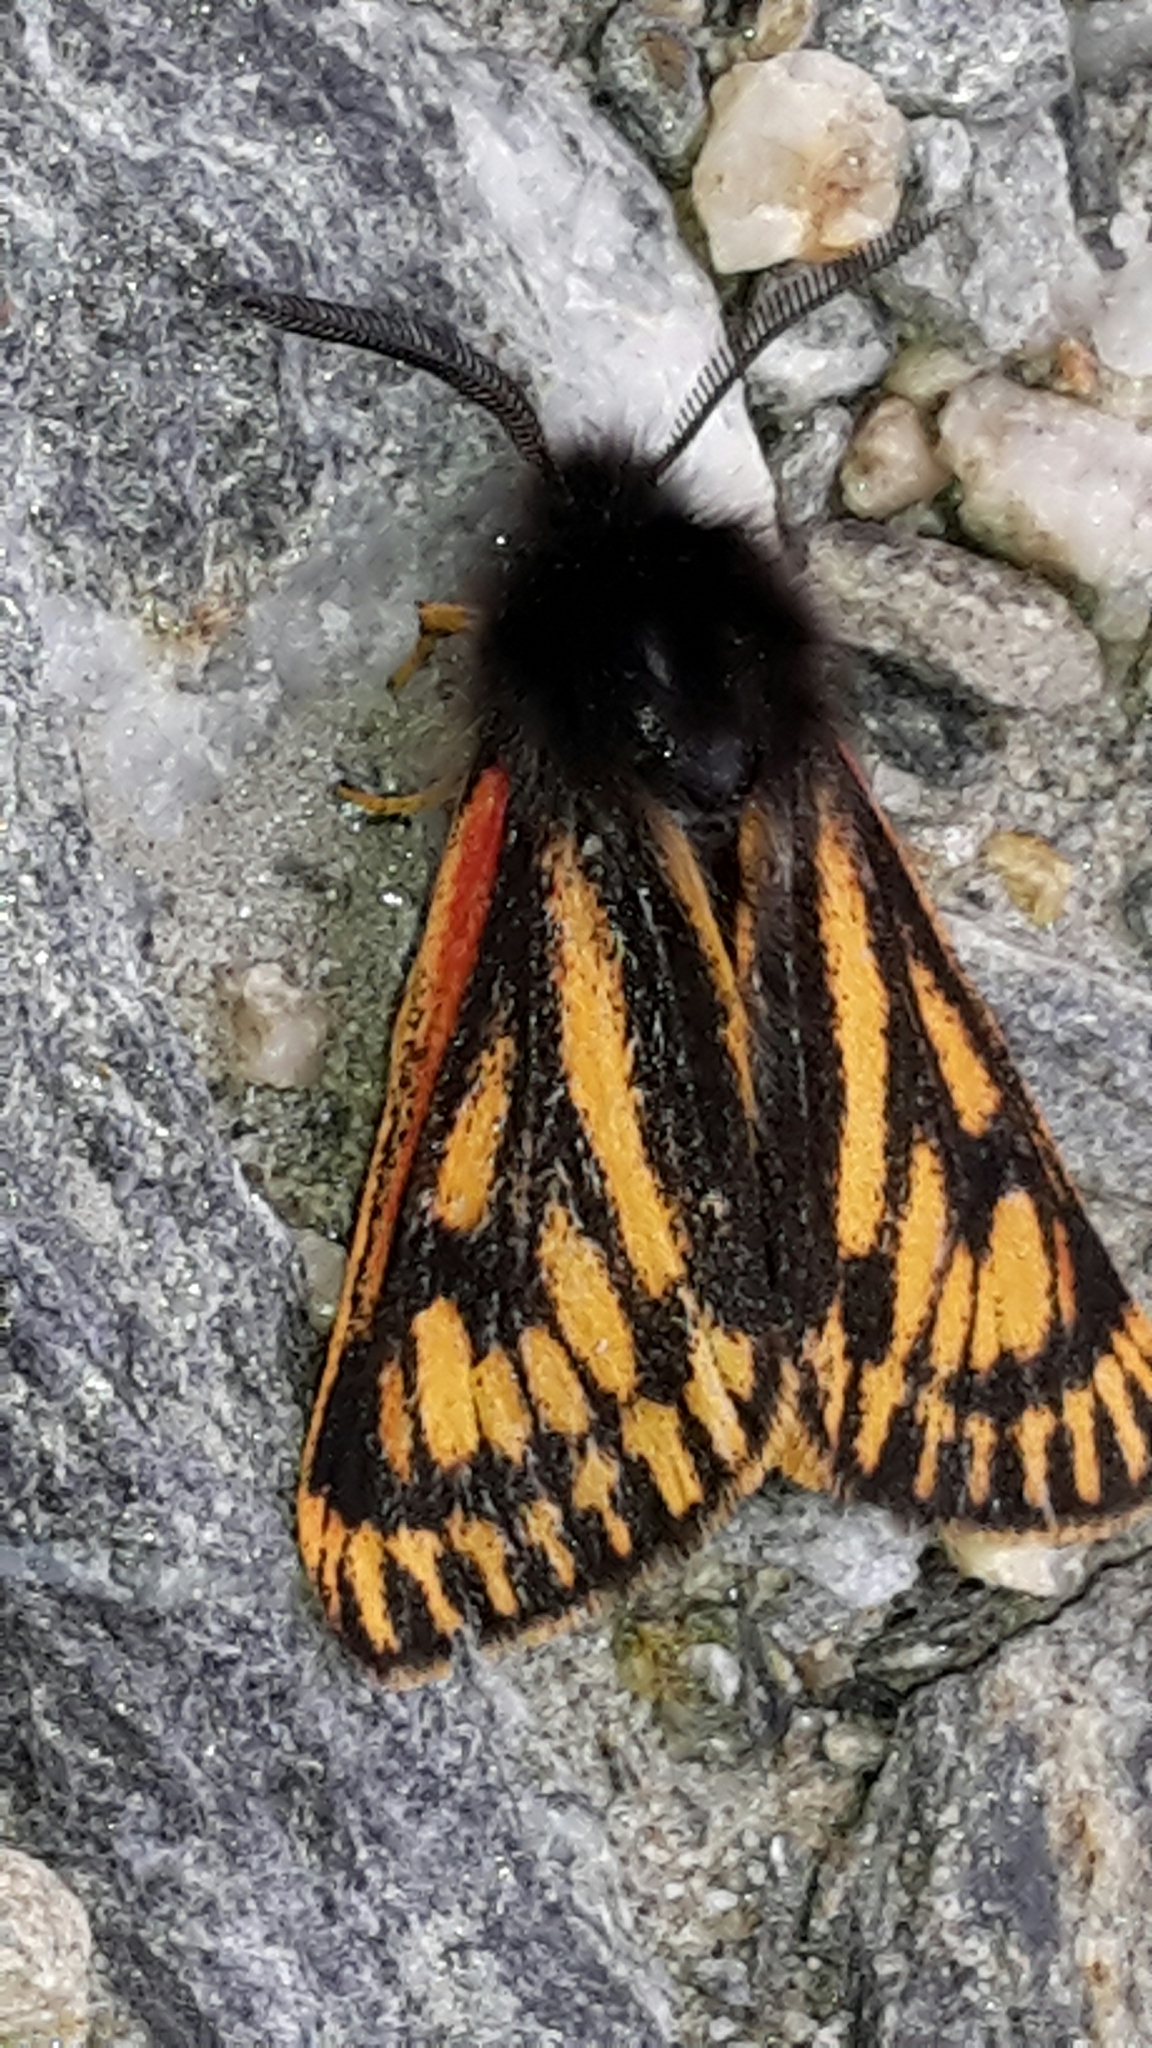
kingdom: Animalia
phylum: Arthropoda
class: Insecta
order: Lepidoptera
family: Erebidae
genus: Metacrias
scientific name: Metacrias erichrysa
